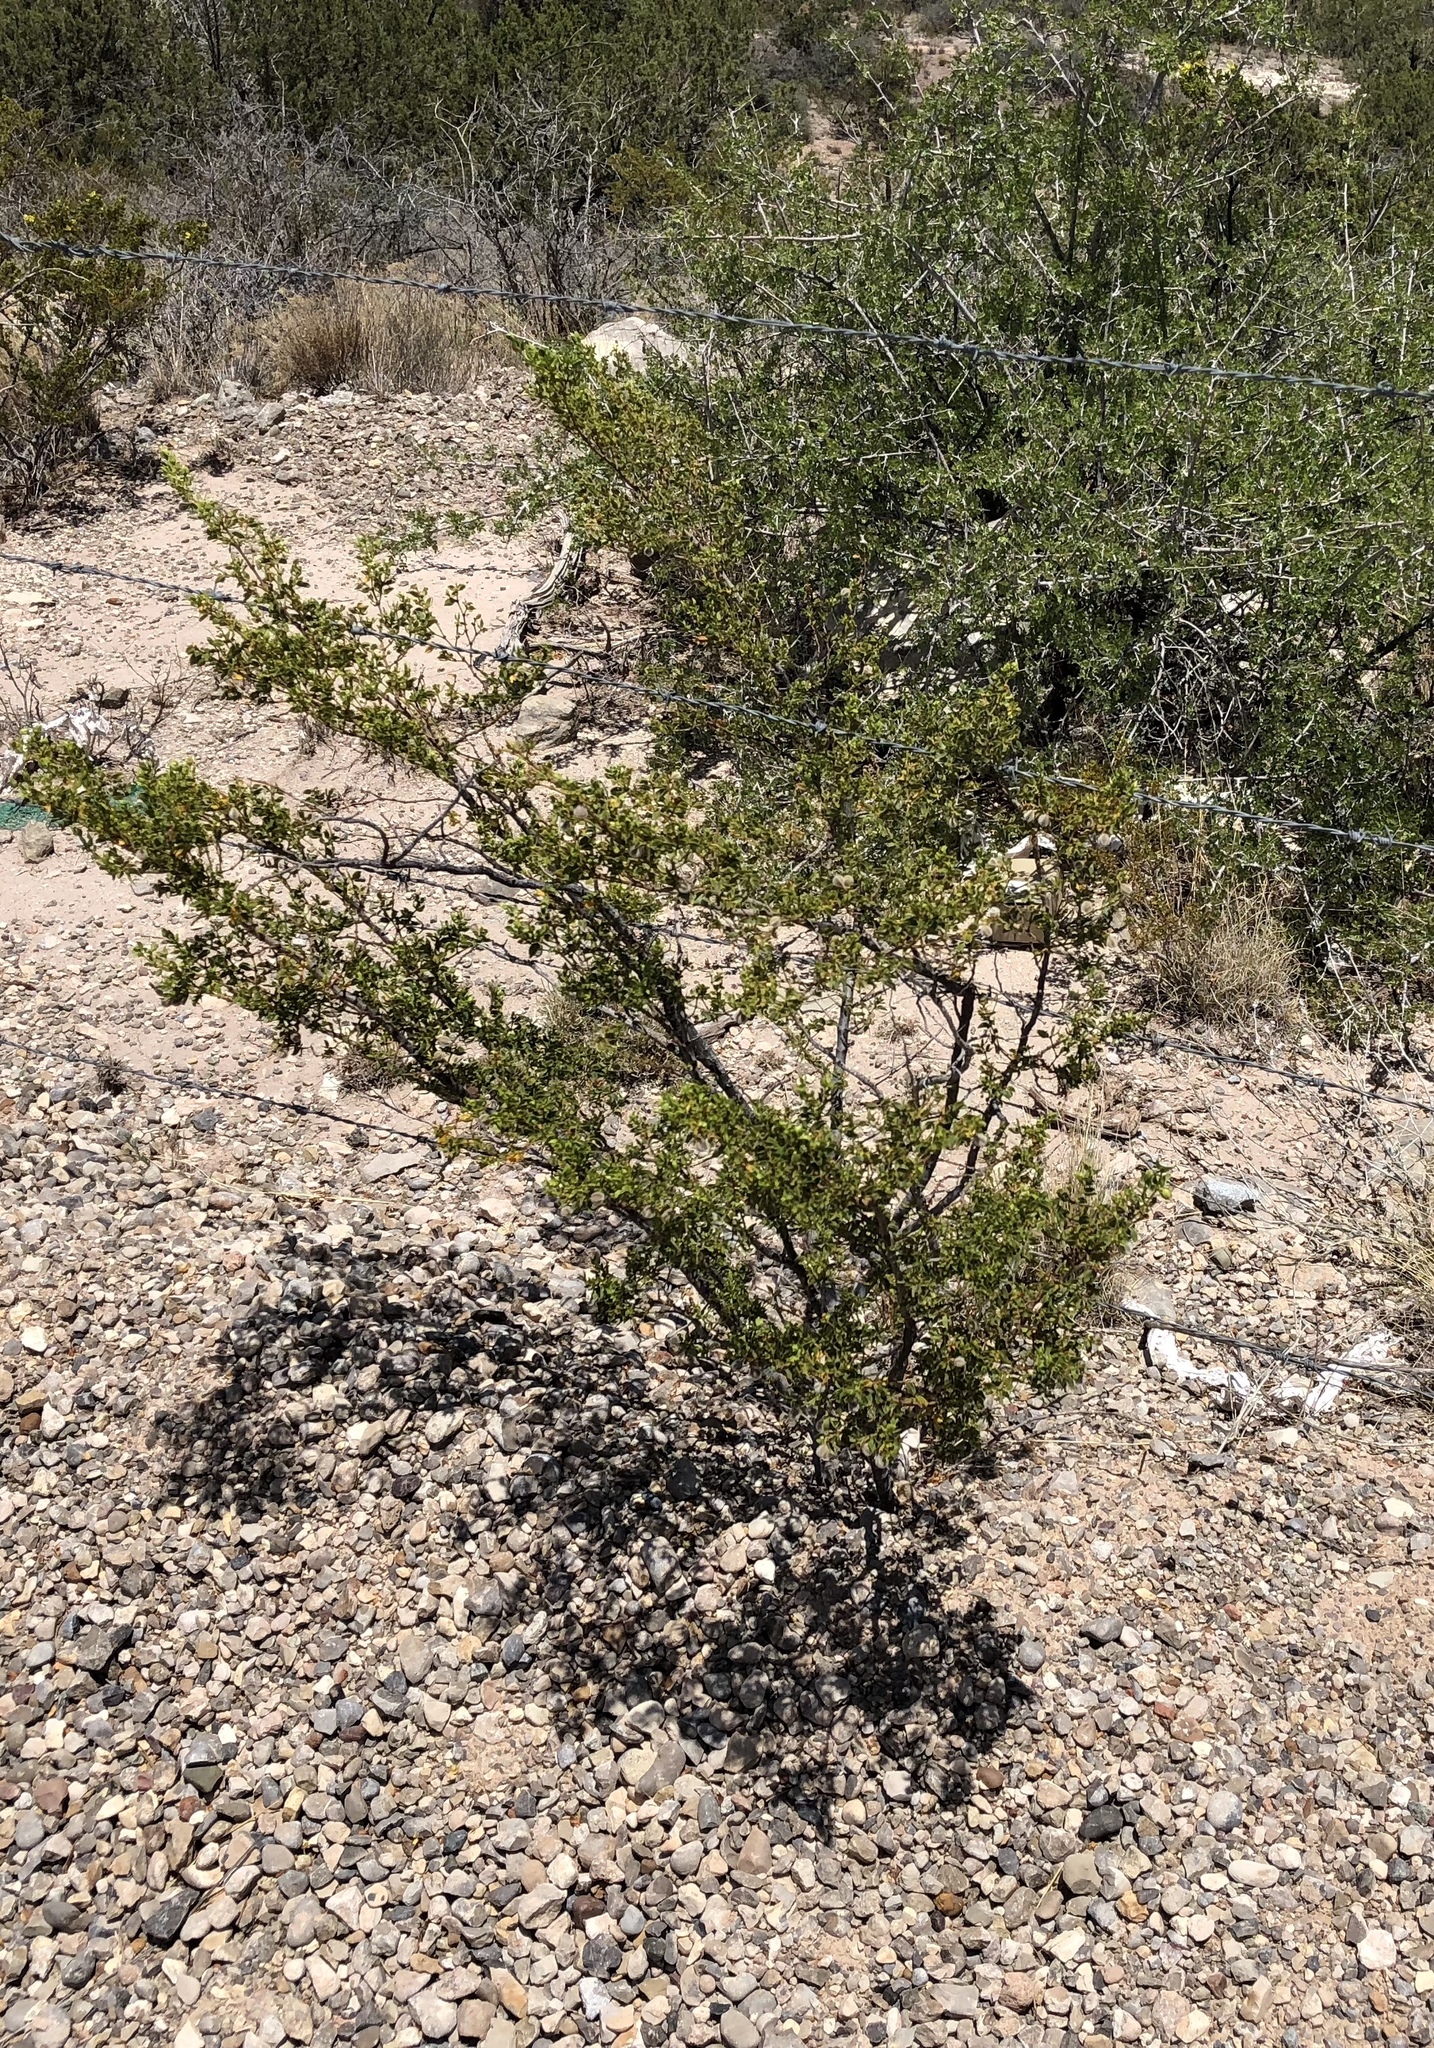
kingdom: Plantae
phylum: Tracheophyta
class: Magnoliopsida
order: Zygophyllales
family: Zygophyllaceae
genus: Larrea
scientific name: Larrea tridentata
